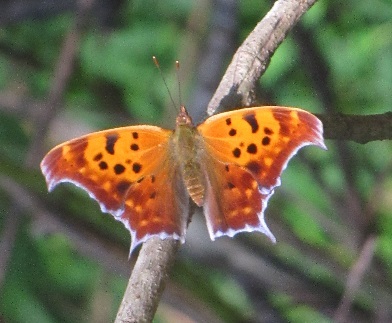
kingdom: Animalia
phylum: Arthropoda
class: Insecta
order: Lepidoptera
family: Nymphalidae
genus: Polygonia
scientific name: Polygonia interrogationis
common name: Question mark
